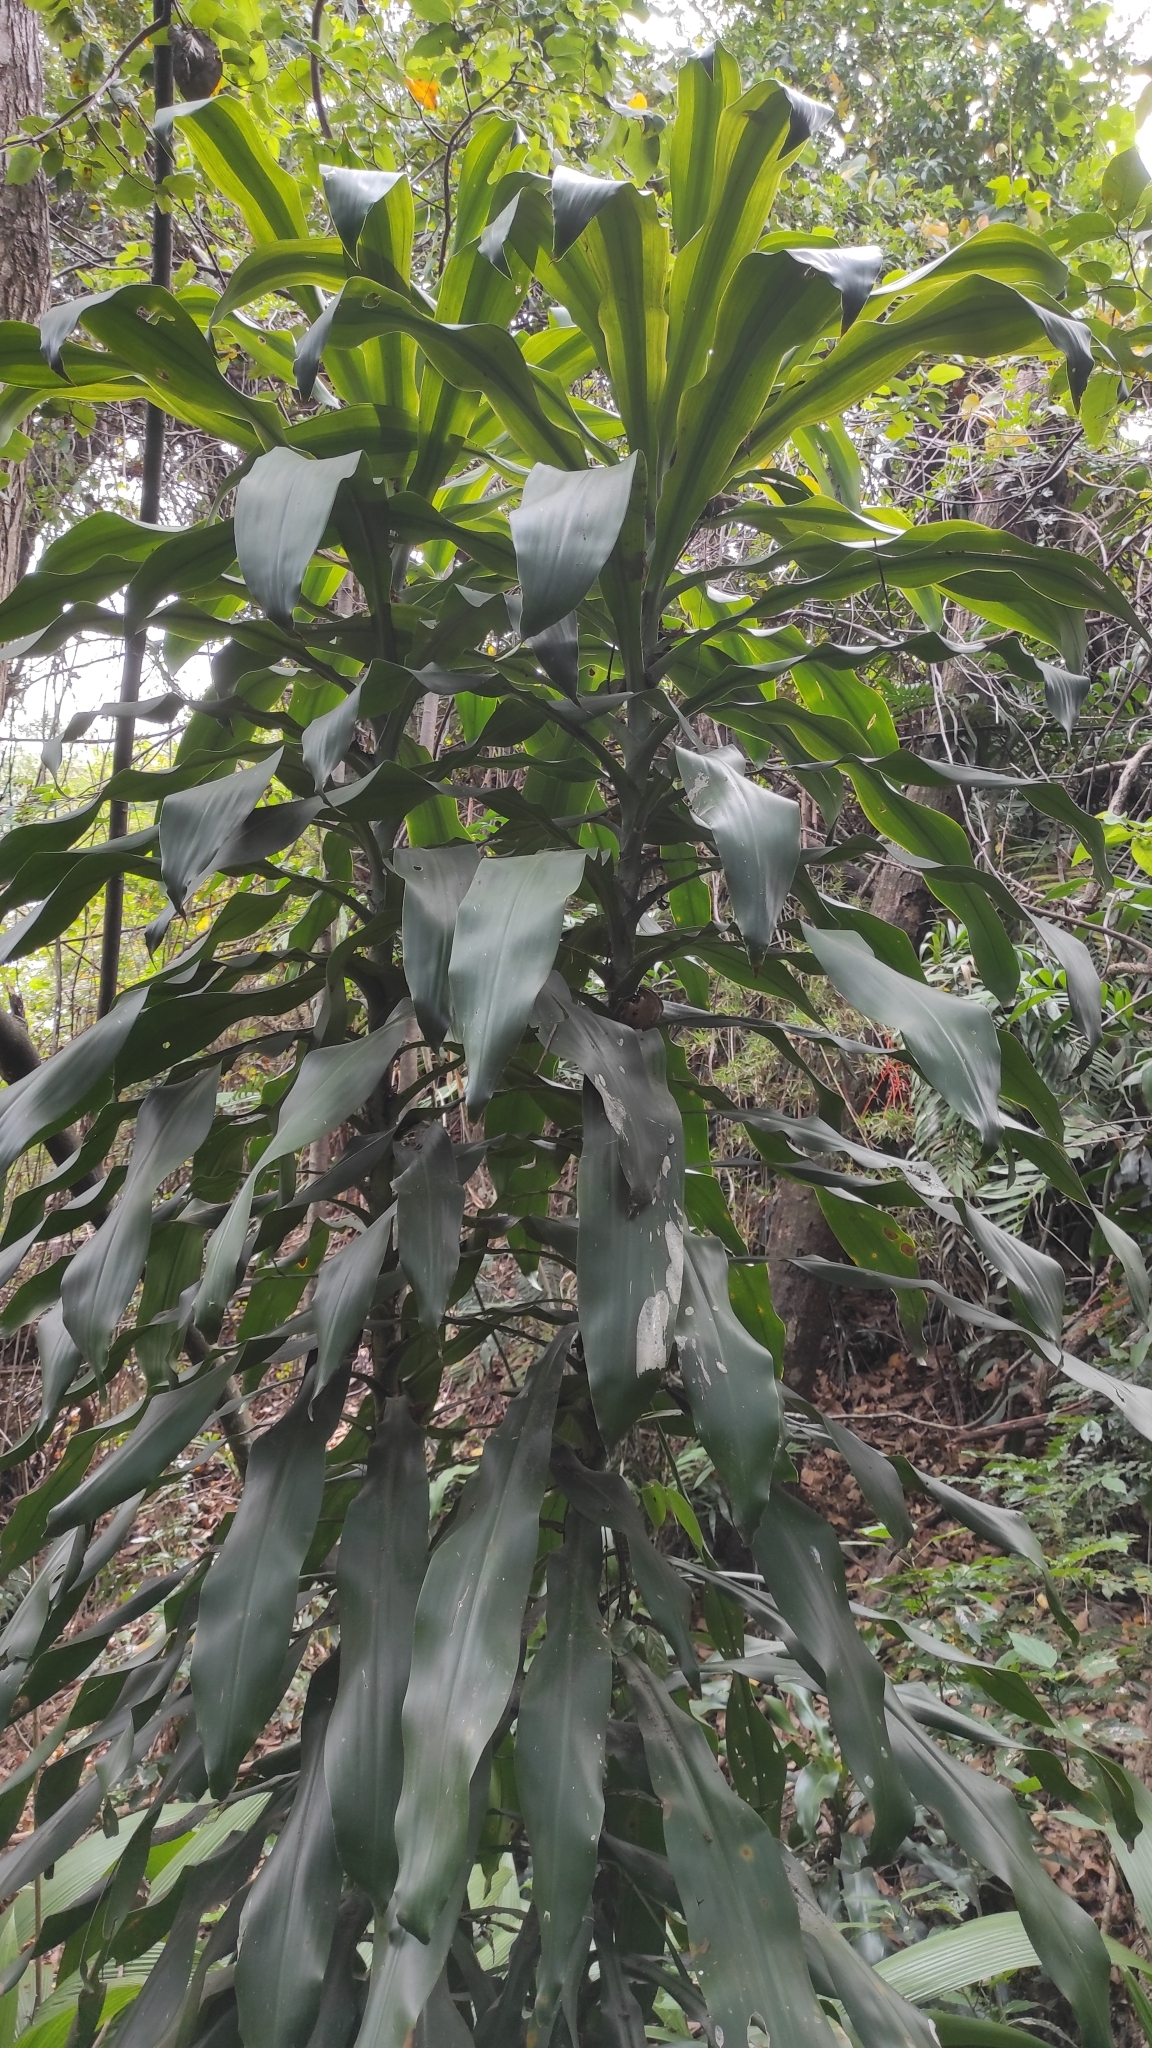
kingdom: Plantae
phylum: Tracheophyta
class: Liliopsida
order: Asparagales
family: Asparagaceae
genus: Dracaena
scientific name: Dracaena fragrans
